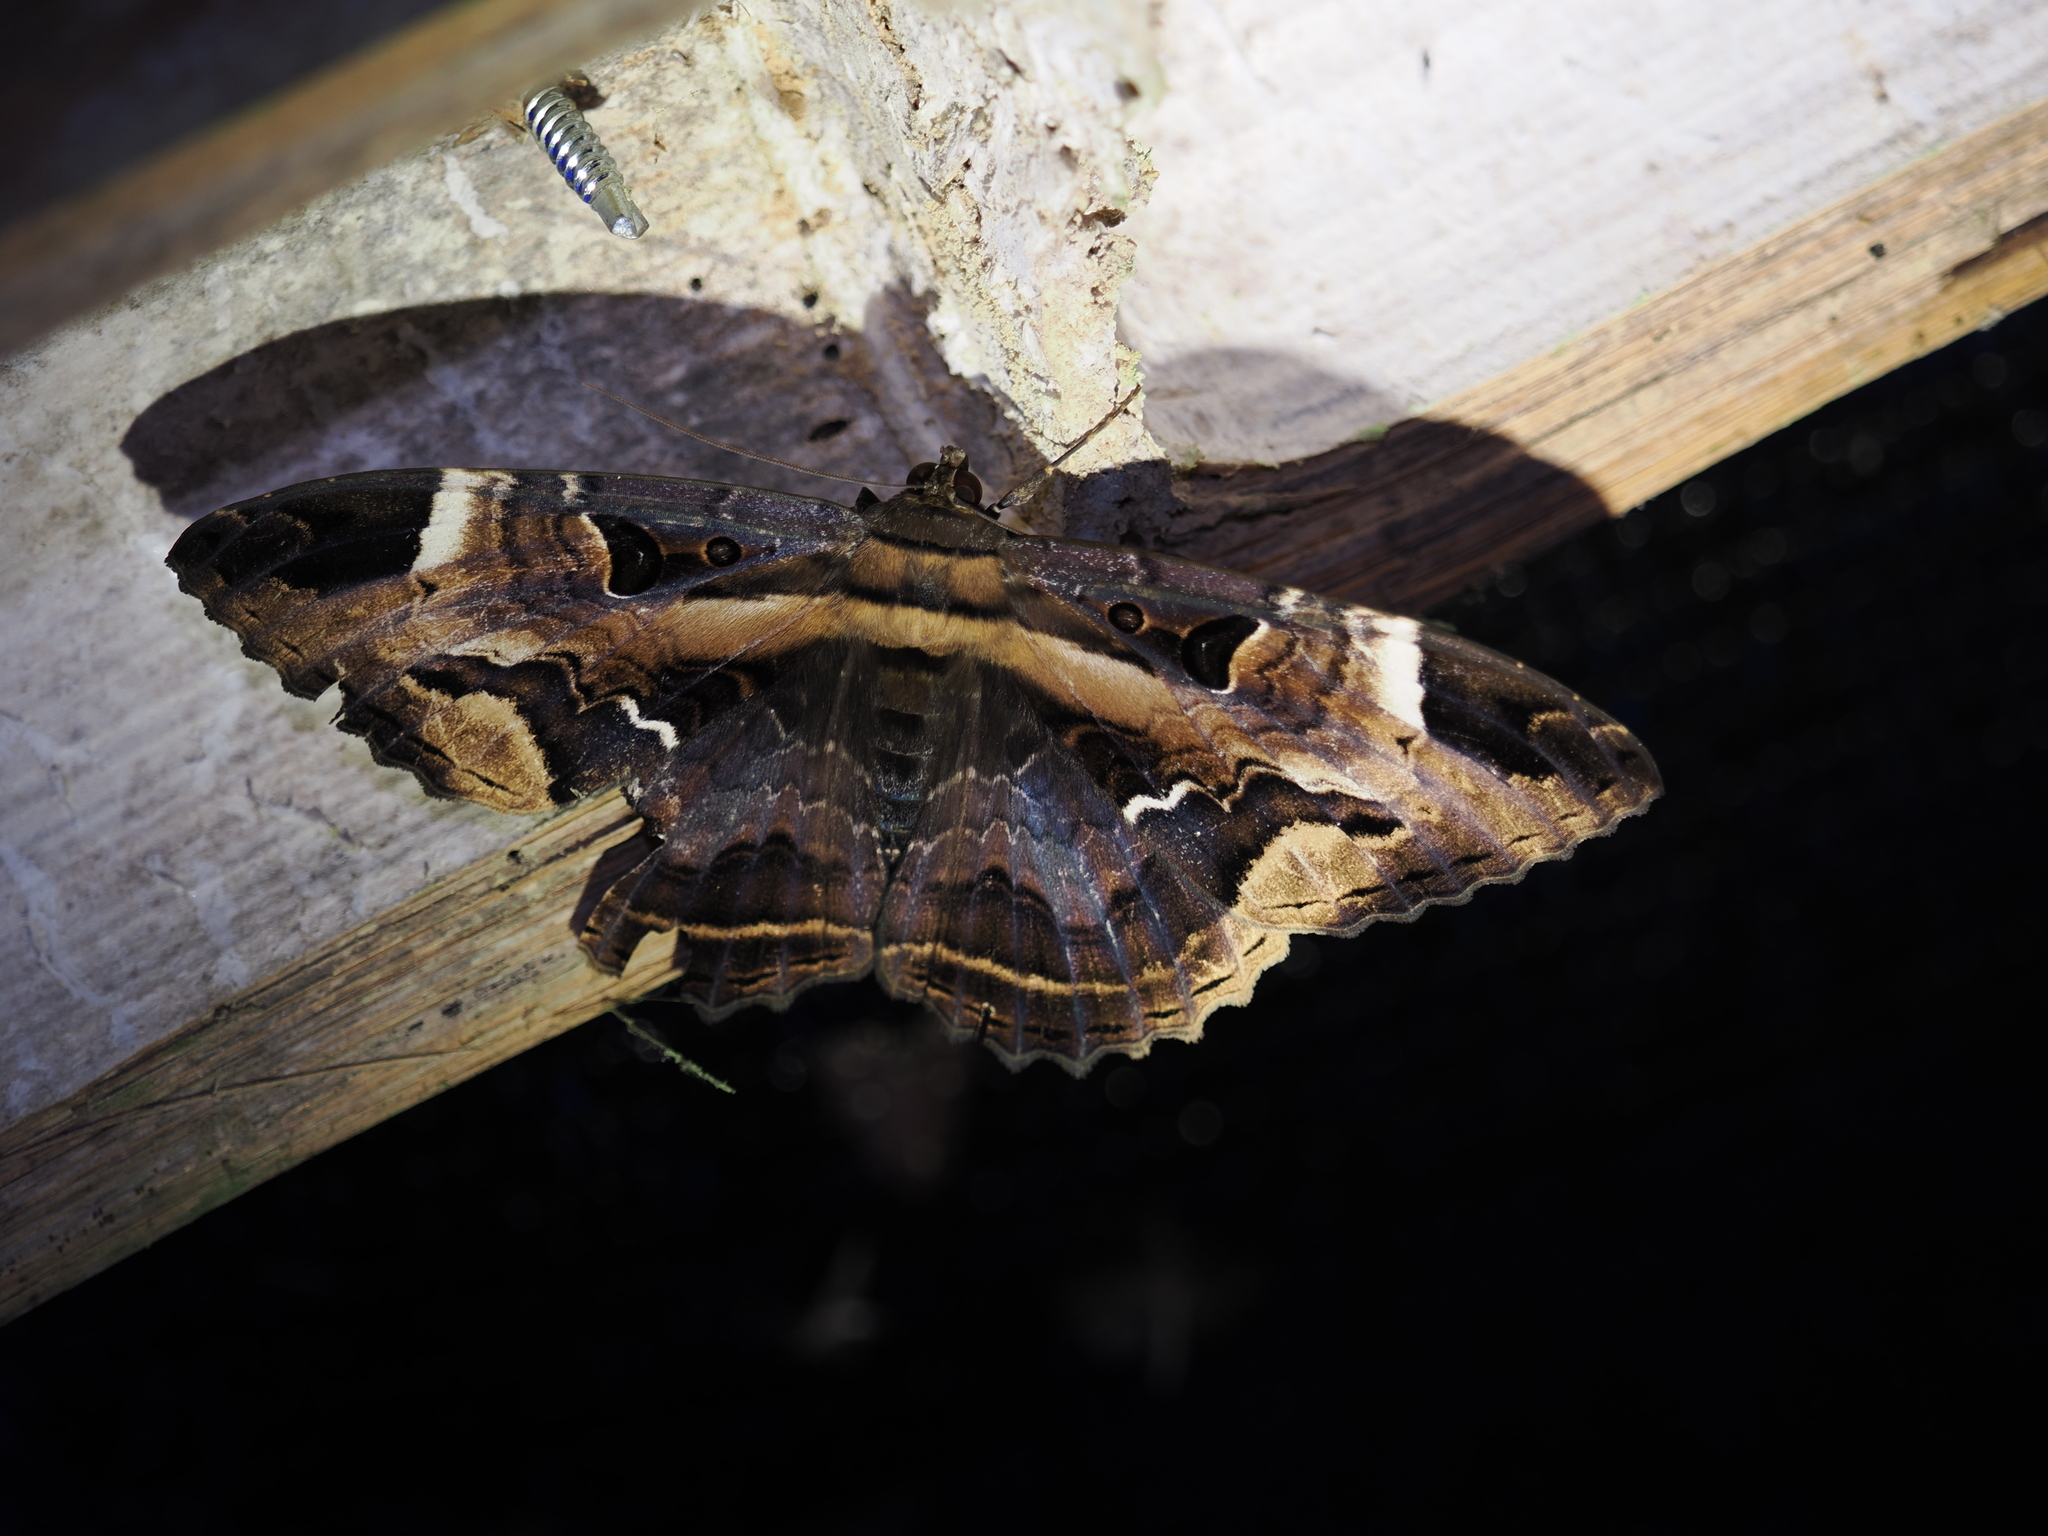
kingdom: Animalia
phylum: Arthropoda
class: Insecta
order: Lepidoptera
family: Erebidae
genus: Feigeria
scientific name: Feigeria herilia
